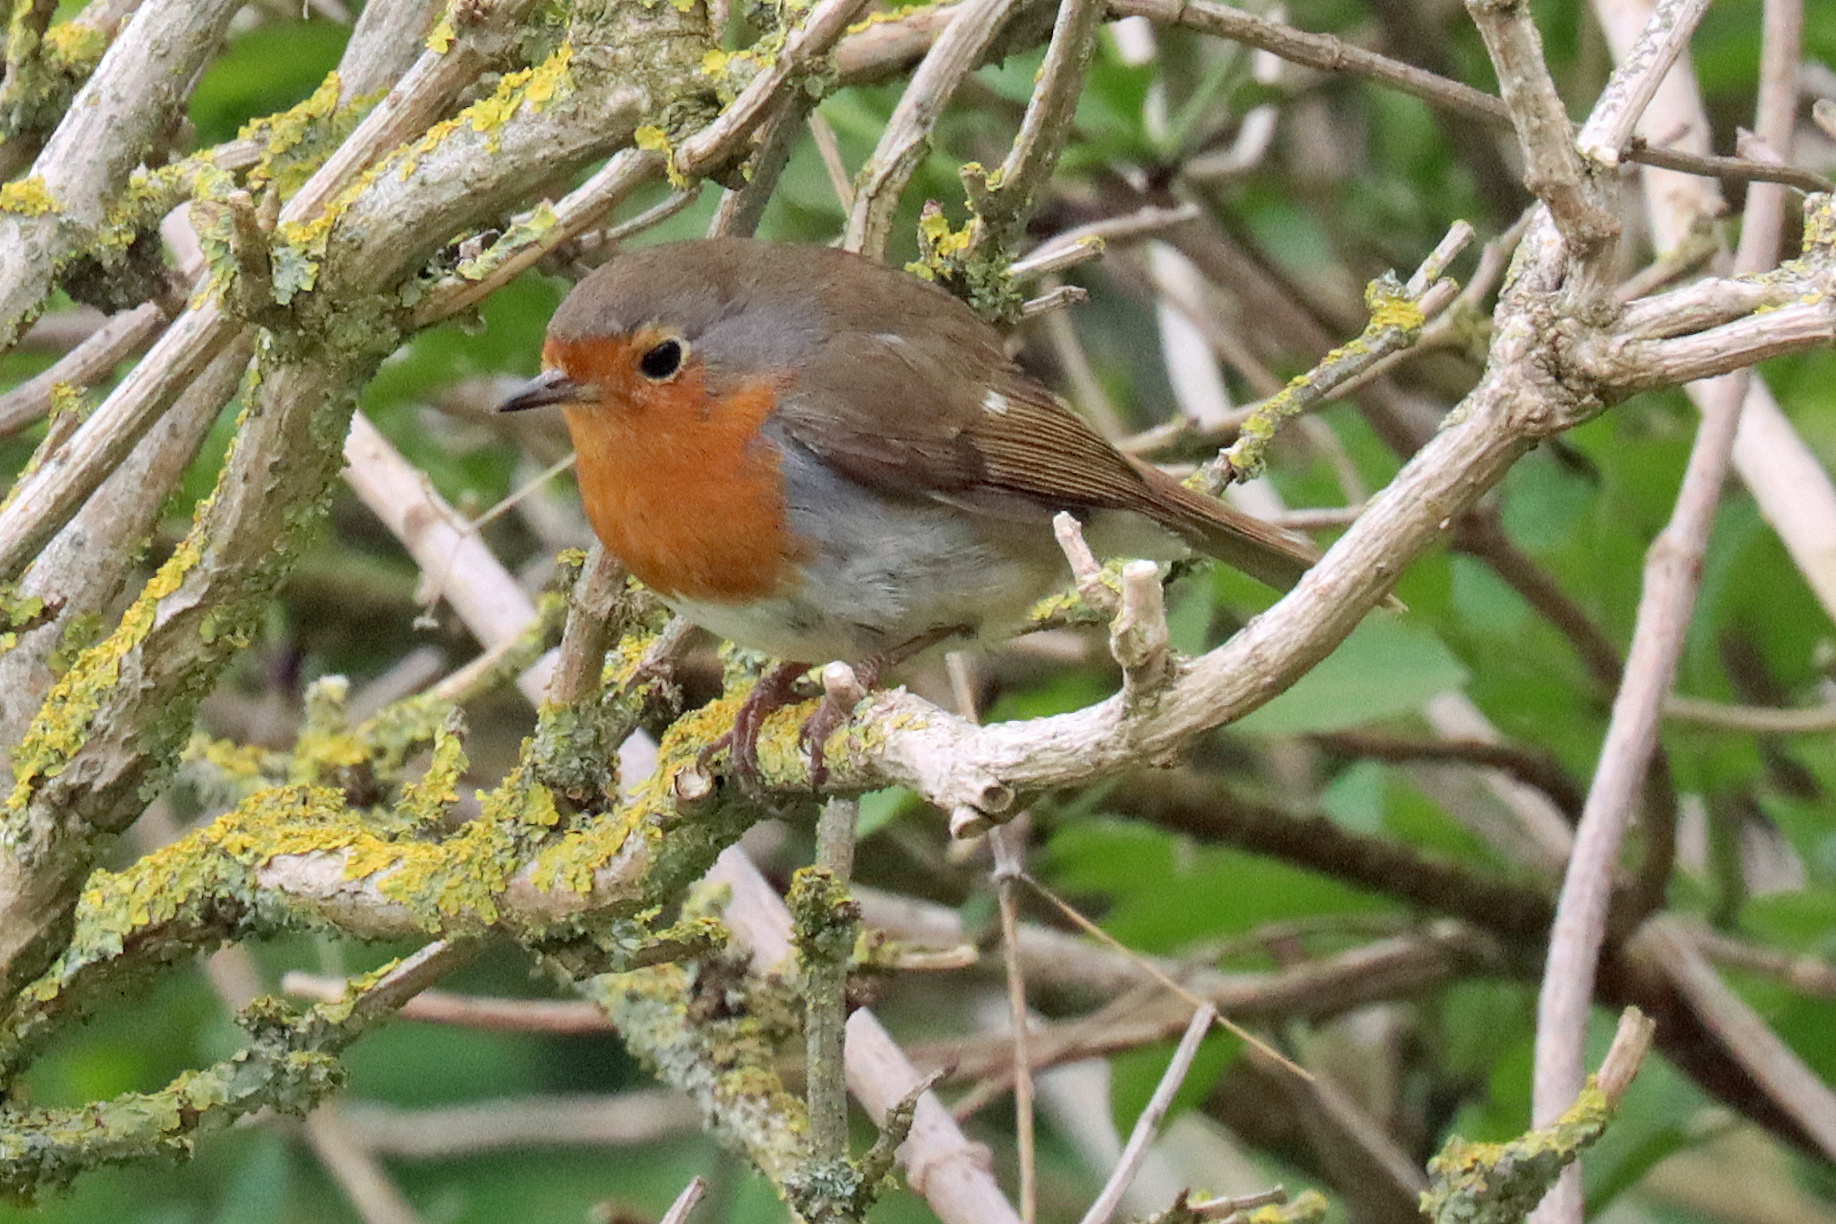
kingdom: Animalia
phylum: Chordata
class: Aves
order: Passeriformes
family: Muscicapidae
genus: Erithacus
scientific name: Erithacus rubecula
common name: European robin
